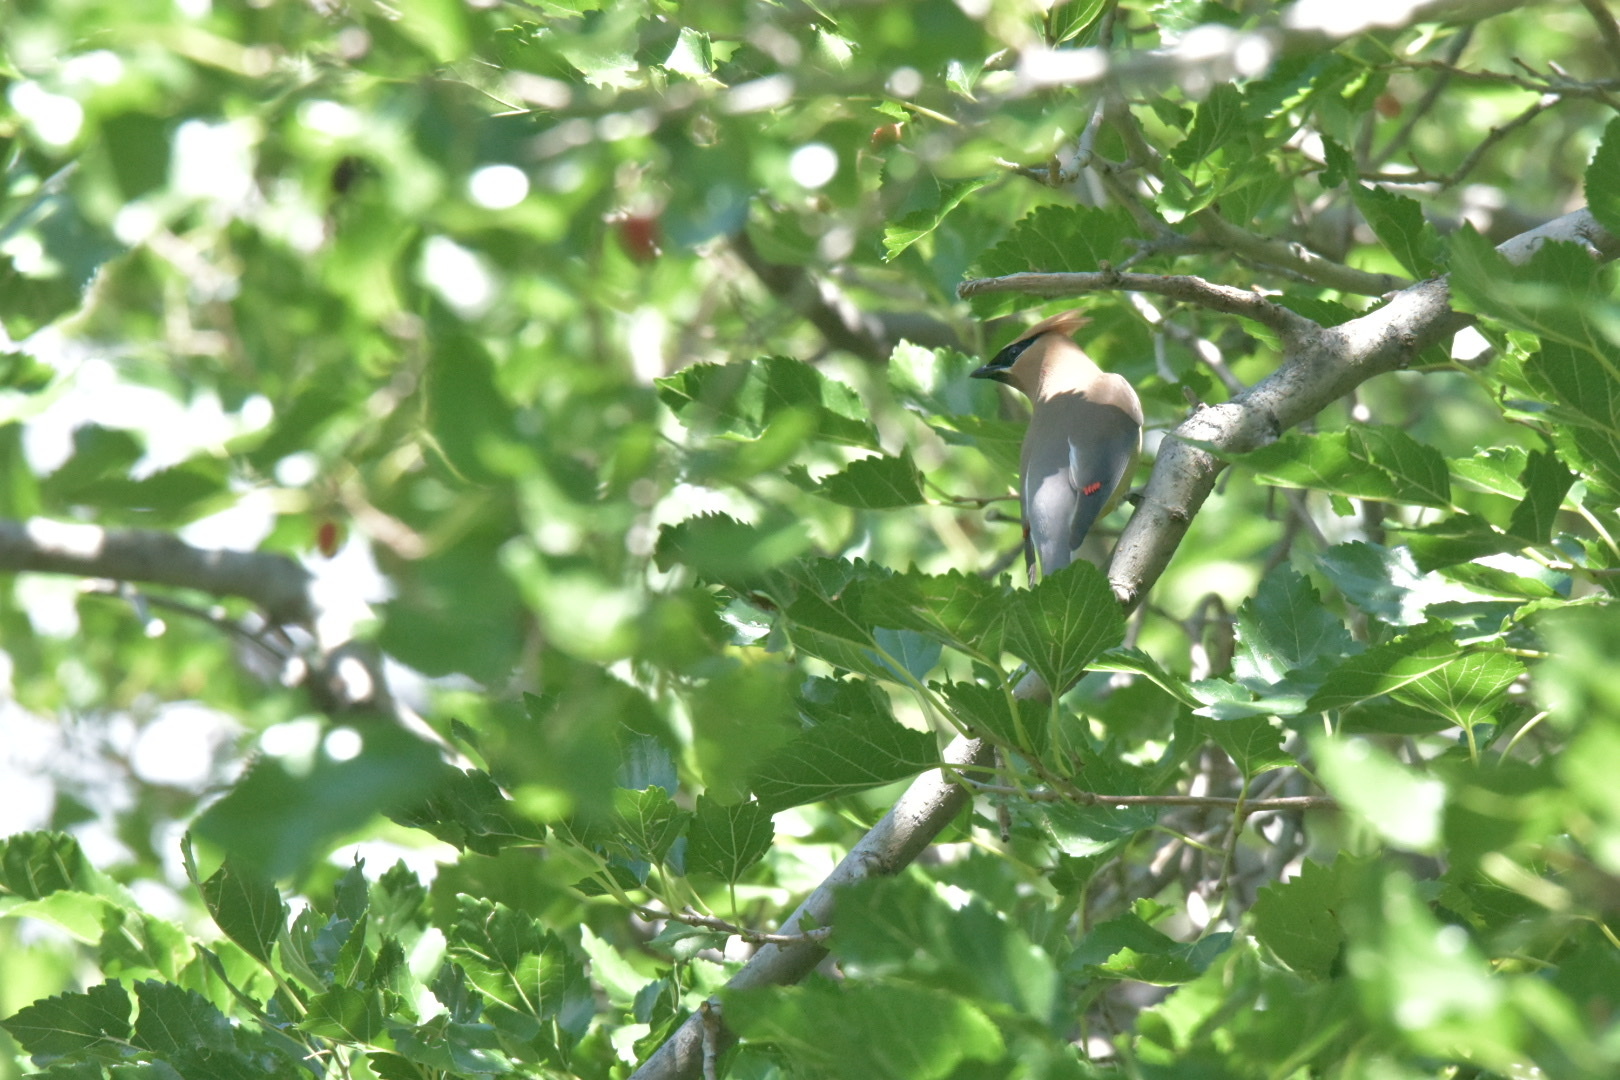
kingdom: Animalia
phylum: Chordata
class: Aves
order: Passeriformes
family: Bombycillidae
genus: Bombycilla
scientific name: Bombycilla cedrorum
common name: Cedar waxwing
